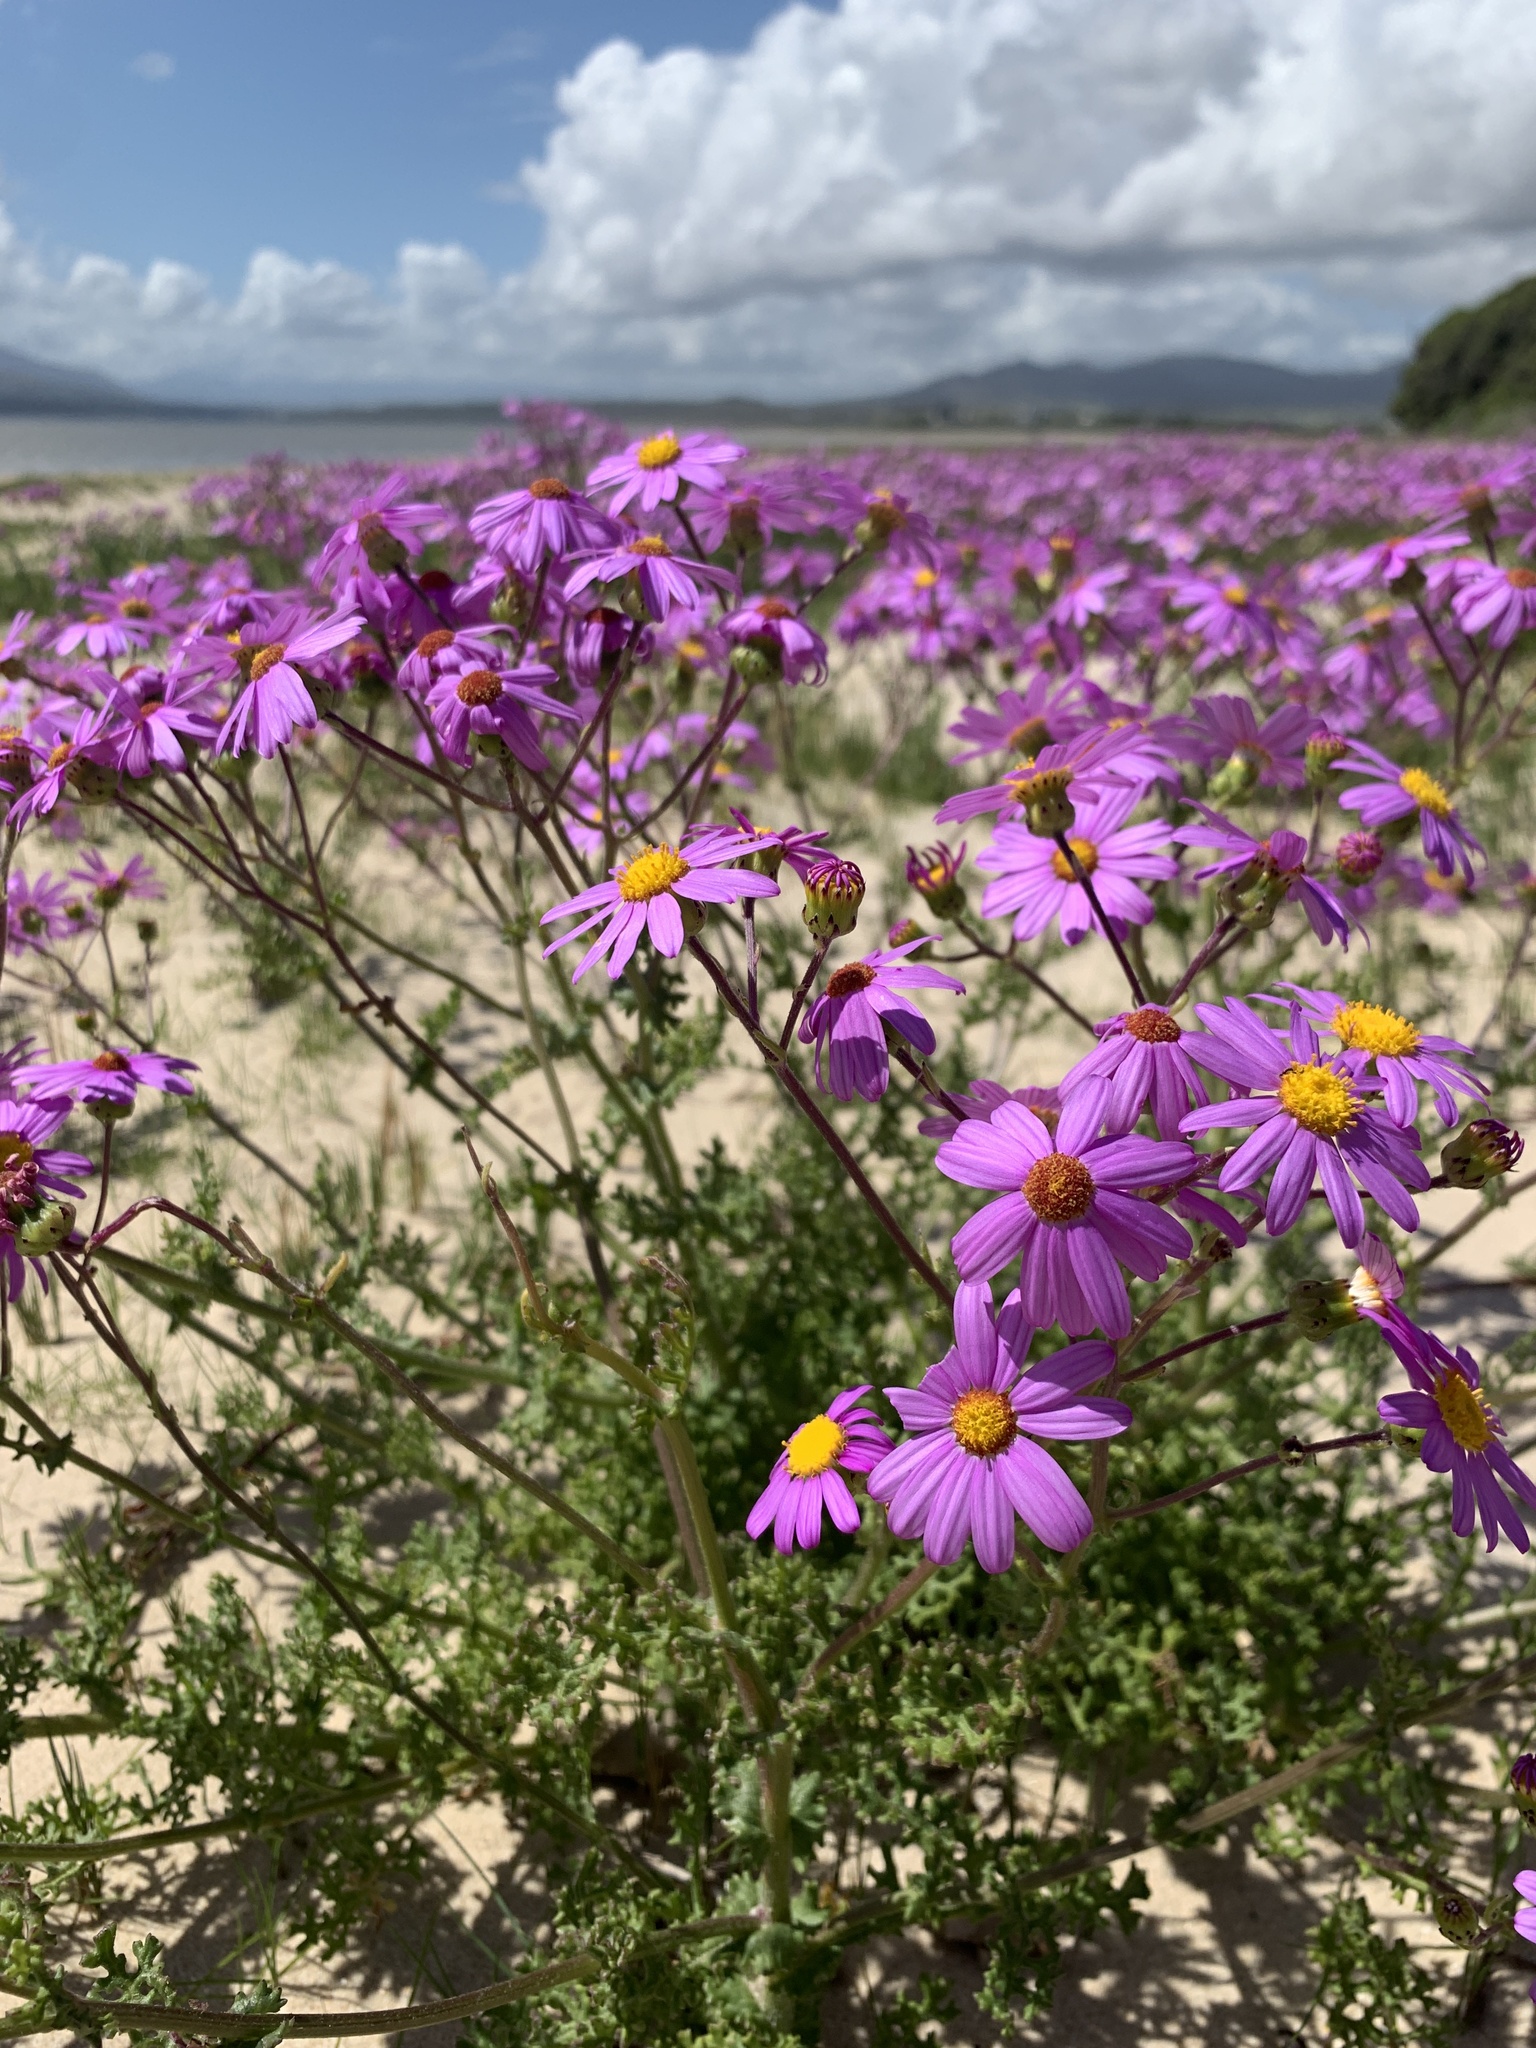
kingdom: Plantae
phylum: Tracheophyta
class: Magnoliopsida
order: Asterales
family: Asteraceae
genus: Senecio
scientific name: Senecio elegans
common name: Purple groundsel
